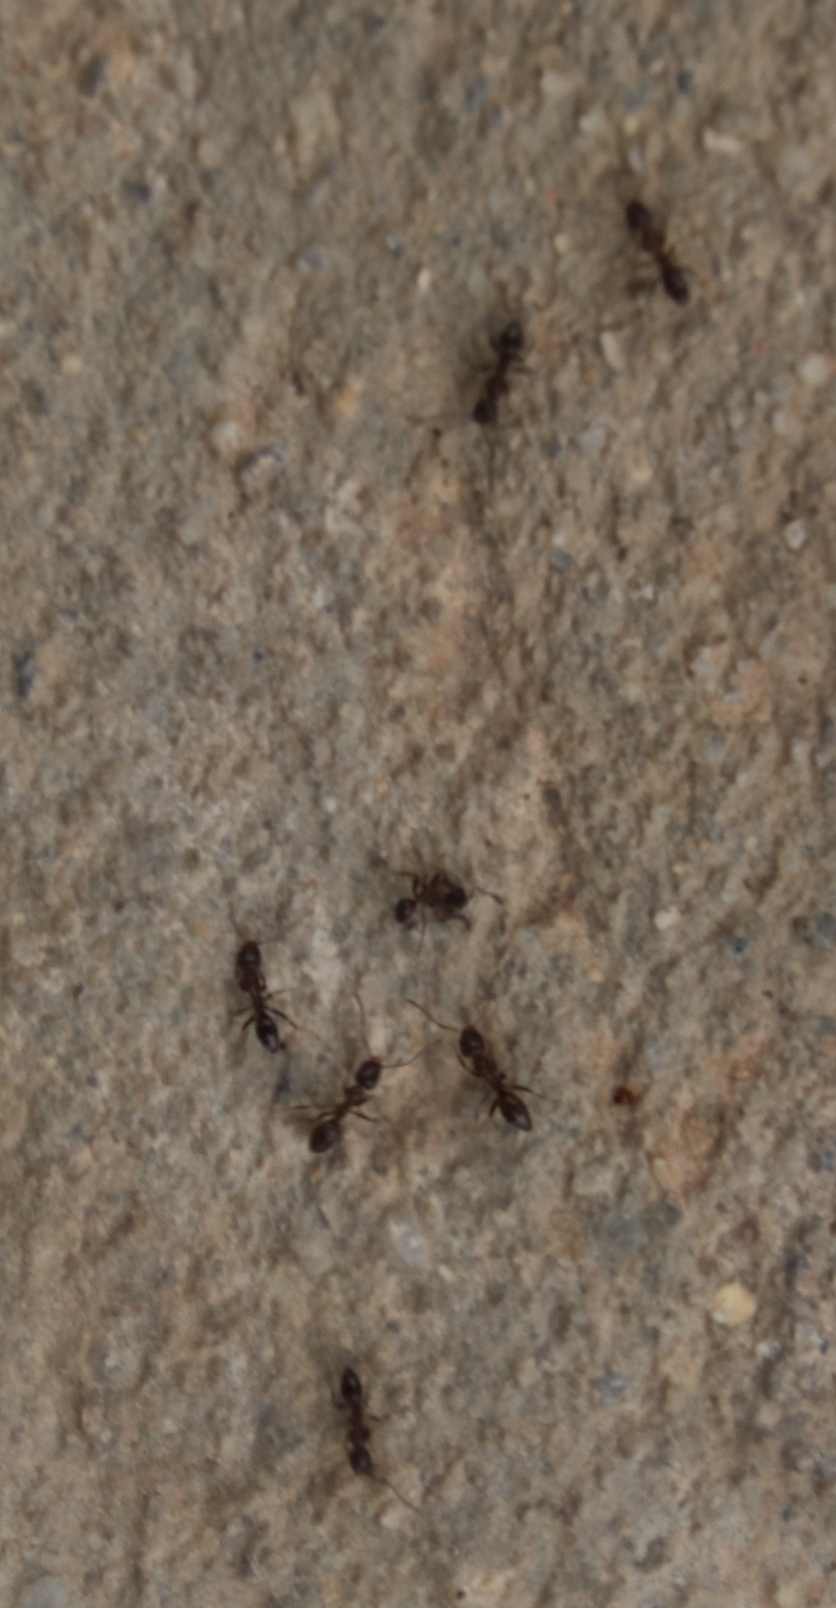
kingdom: Animalia
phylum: Arthropoda
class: Insecta
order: Hymenoptera
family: Formicidae
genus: Linepithema
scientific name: Linepithema humile
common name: Argentine ant
